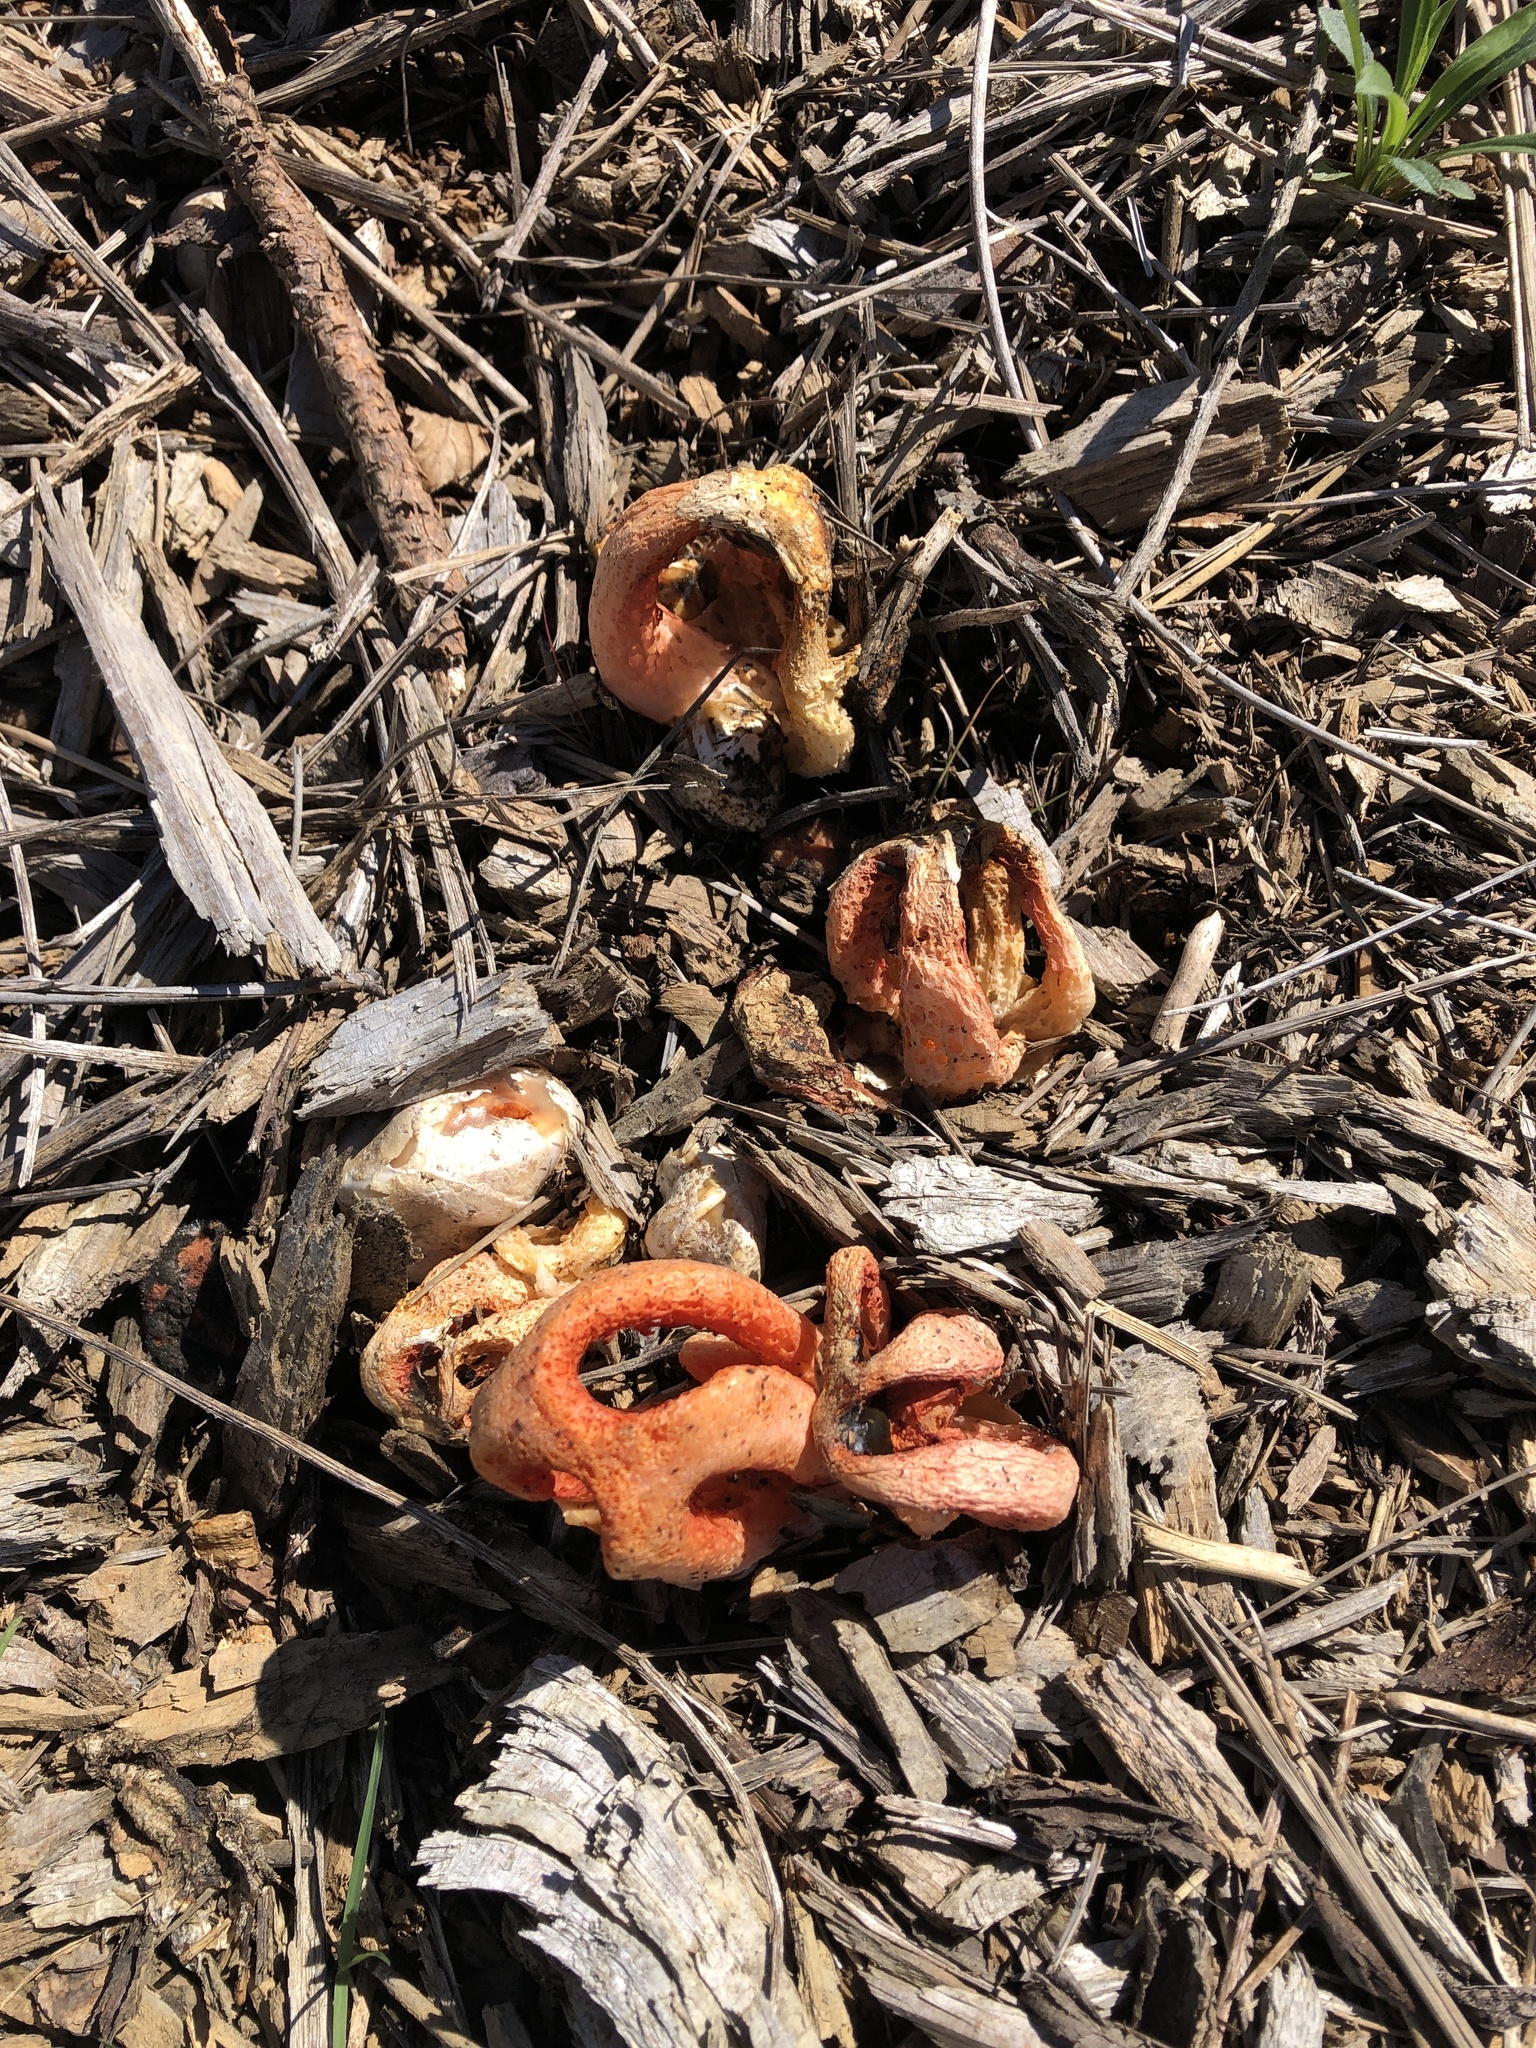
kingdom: Fungi
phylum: Basidiomycota
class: Agaricomycetes
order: Phallales
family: Phallaceae
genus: Clathrus
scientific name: Clathrus columnatus
